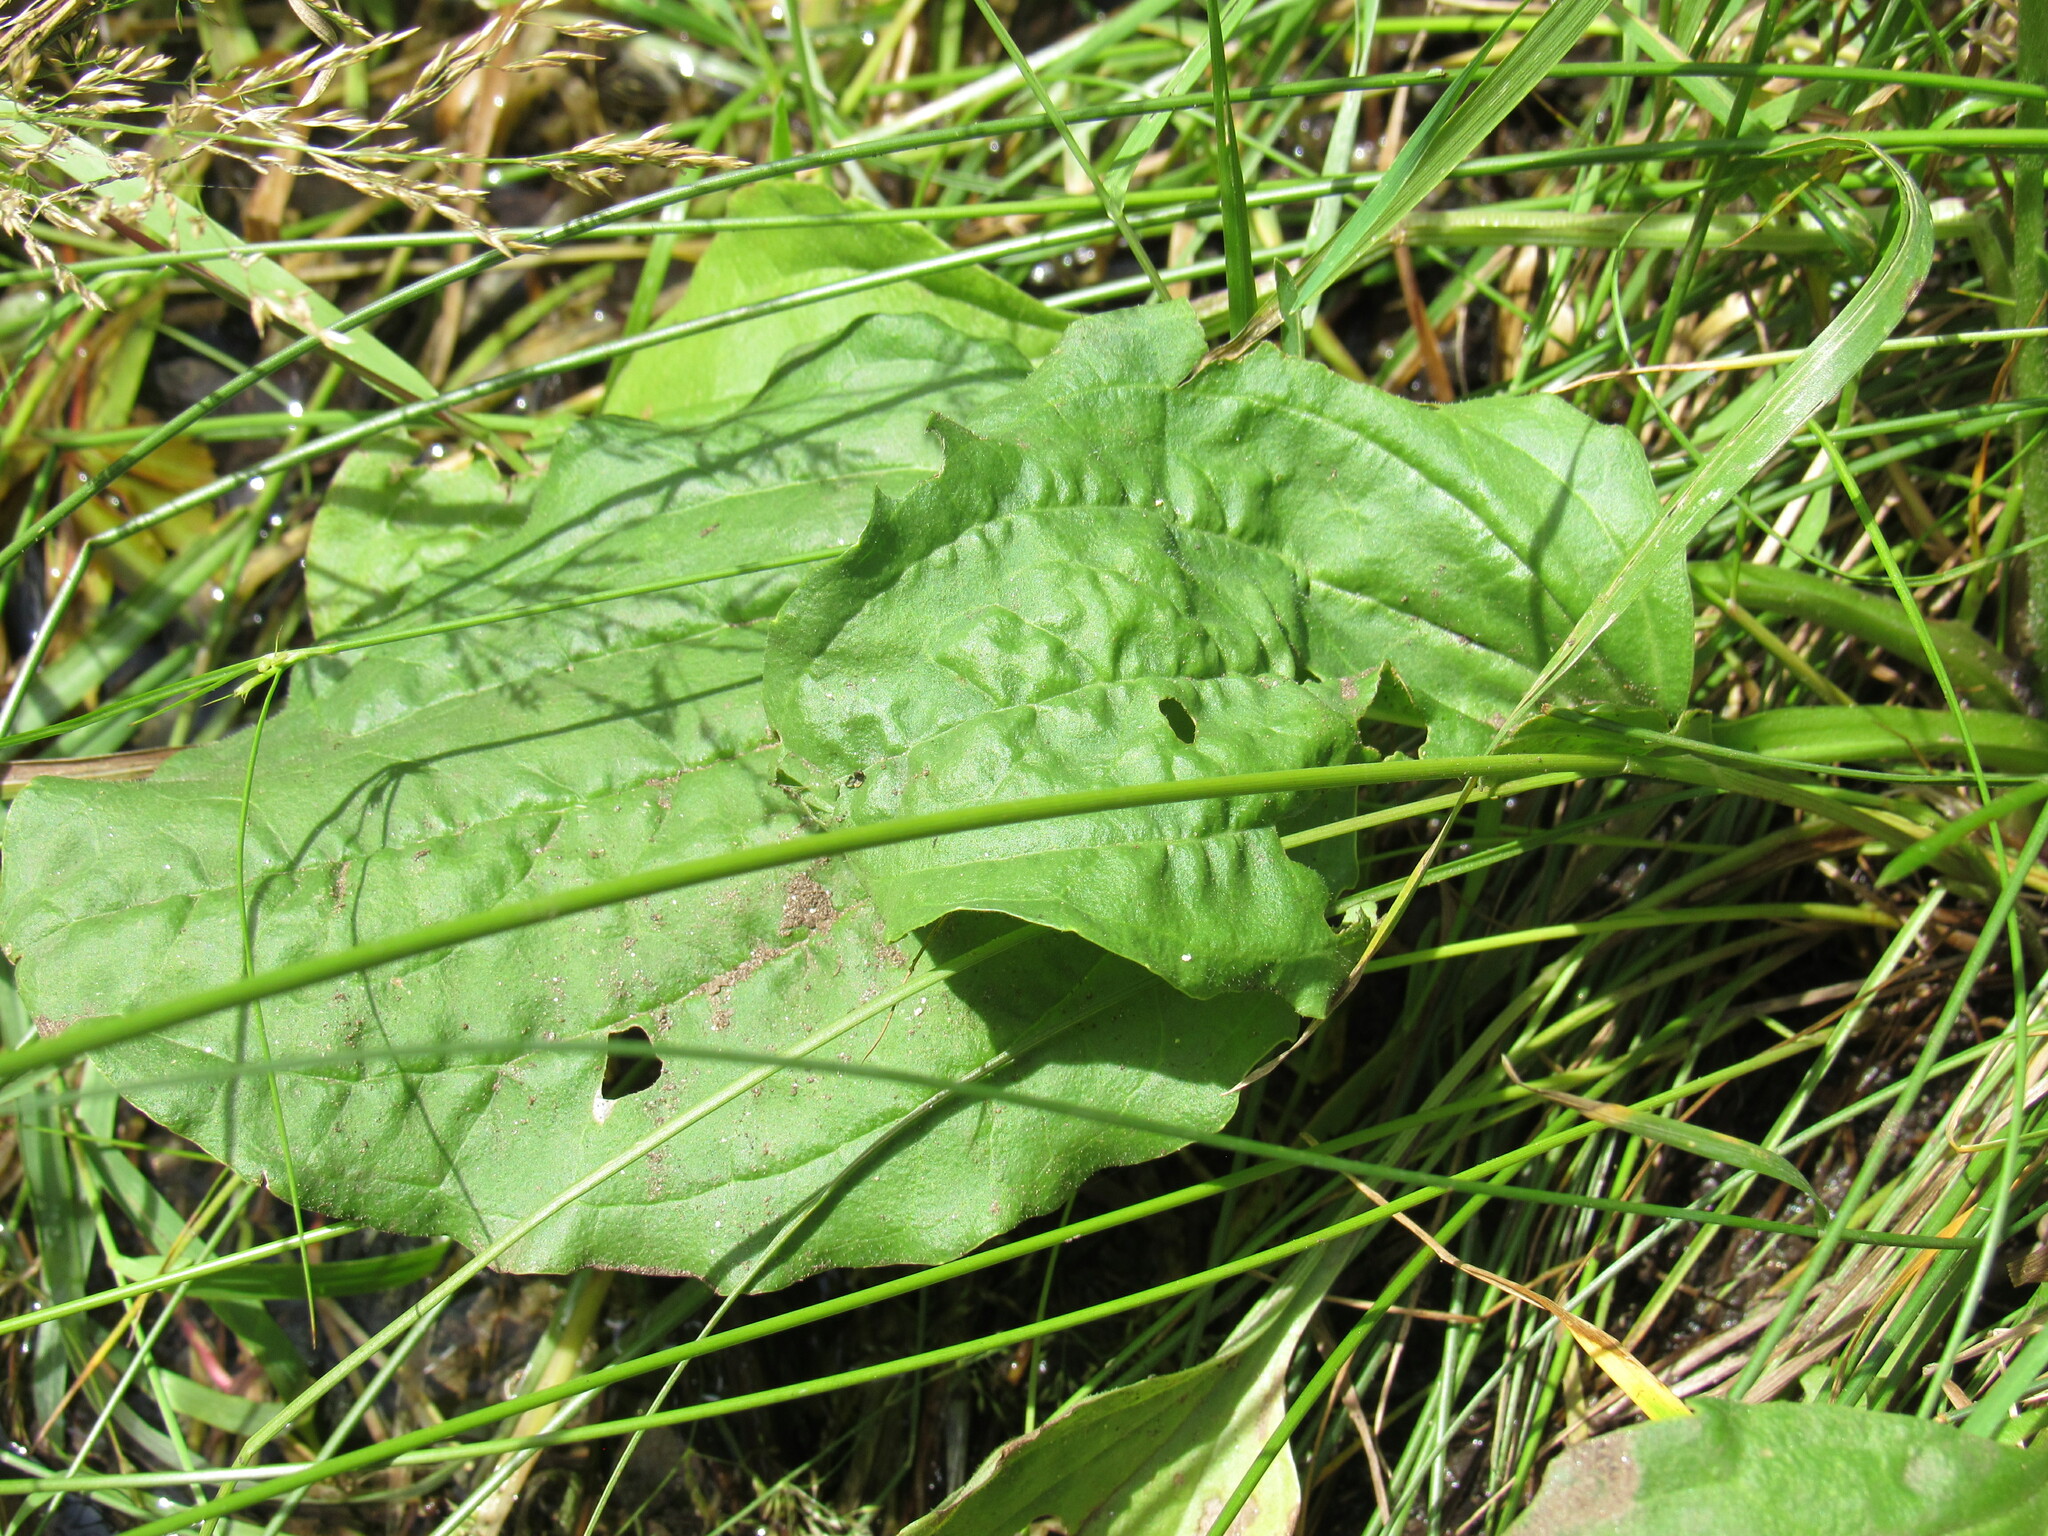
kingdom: Plantae
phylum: Tracheophyta
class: Magnoliopsida
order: Lamiales
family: Plantaginaceae
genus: Plantago
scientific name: Plantago major
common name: Common plantain
